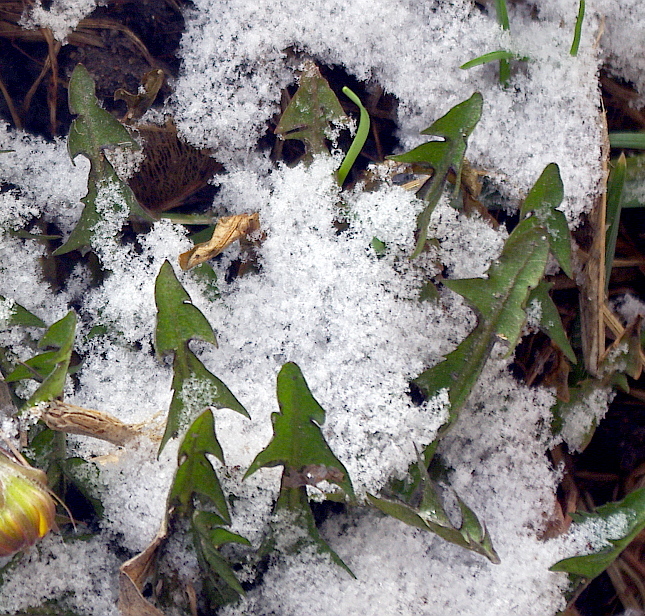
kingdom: Plantae
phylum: Tracheophyta
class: Magnoliopsida
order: Asterales
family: Asteraceae
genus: Taraxacum
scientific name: Taraxacum officinale
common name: Common dandelion
